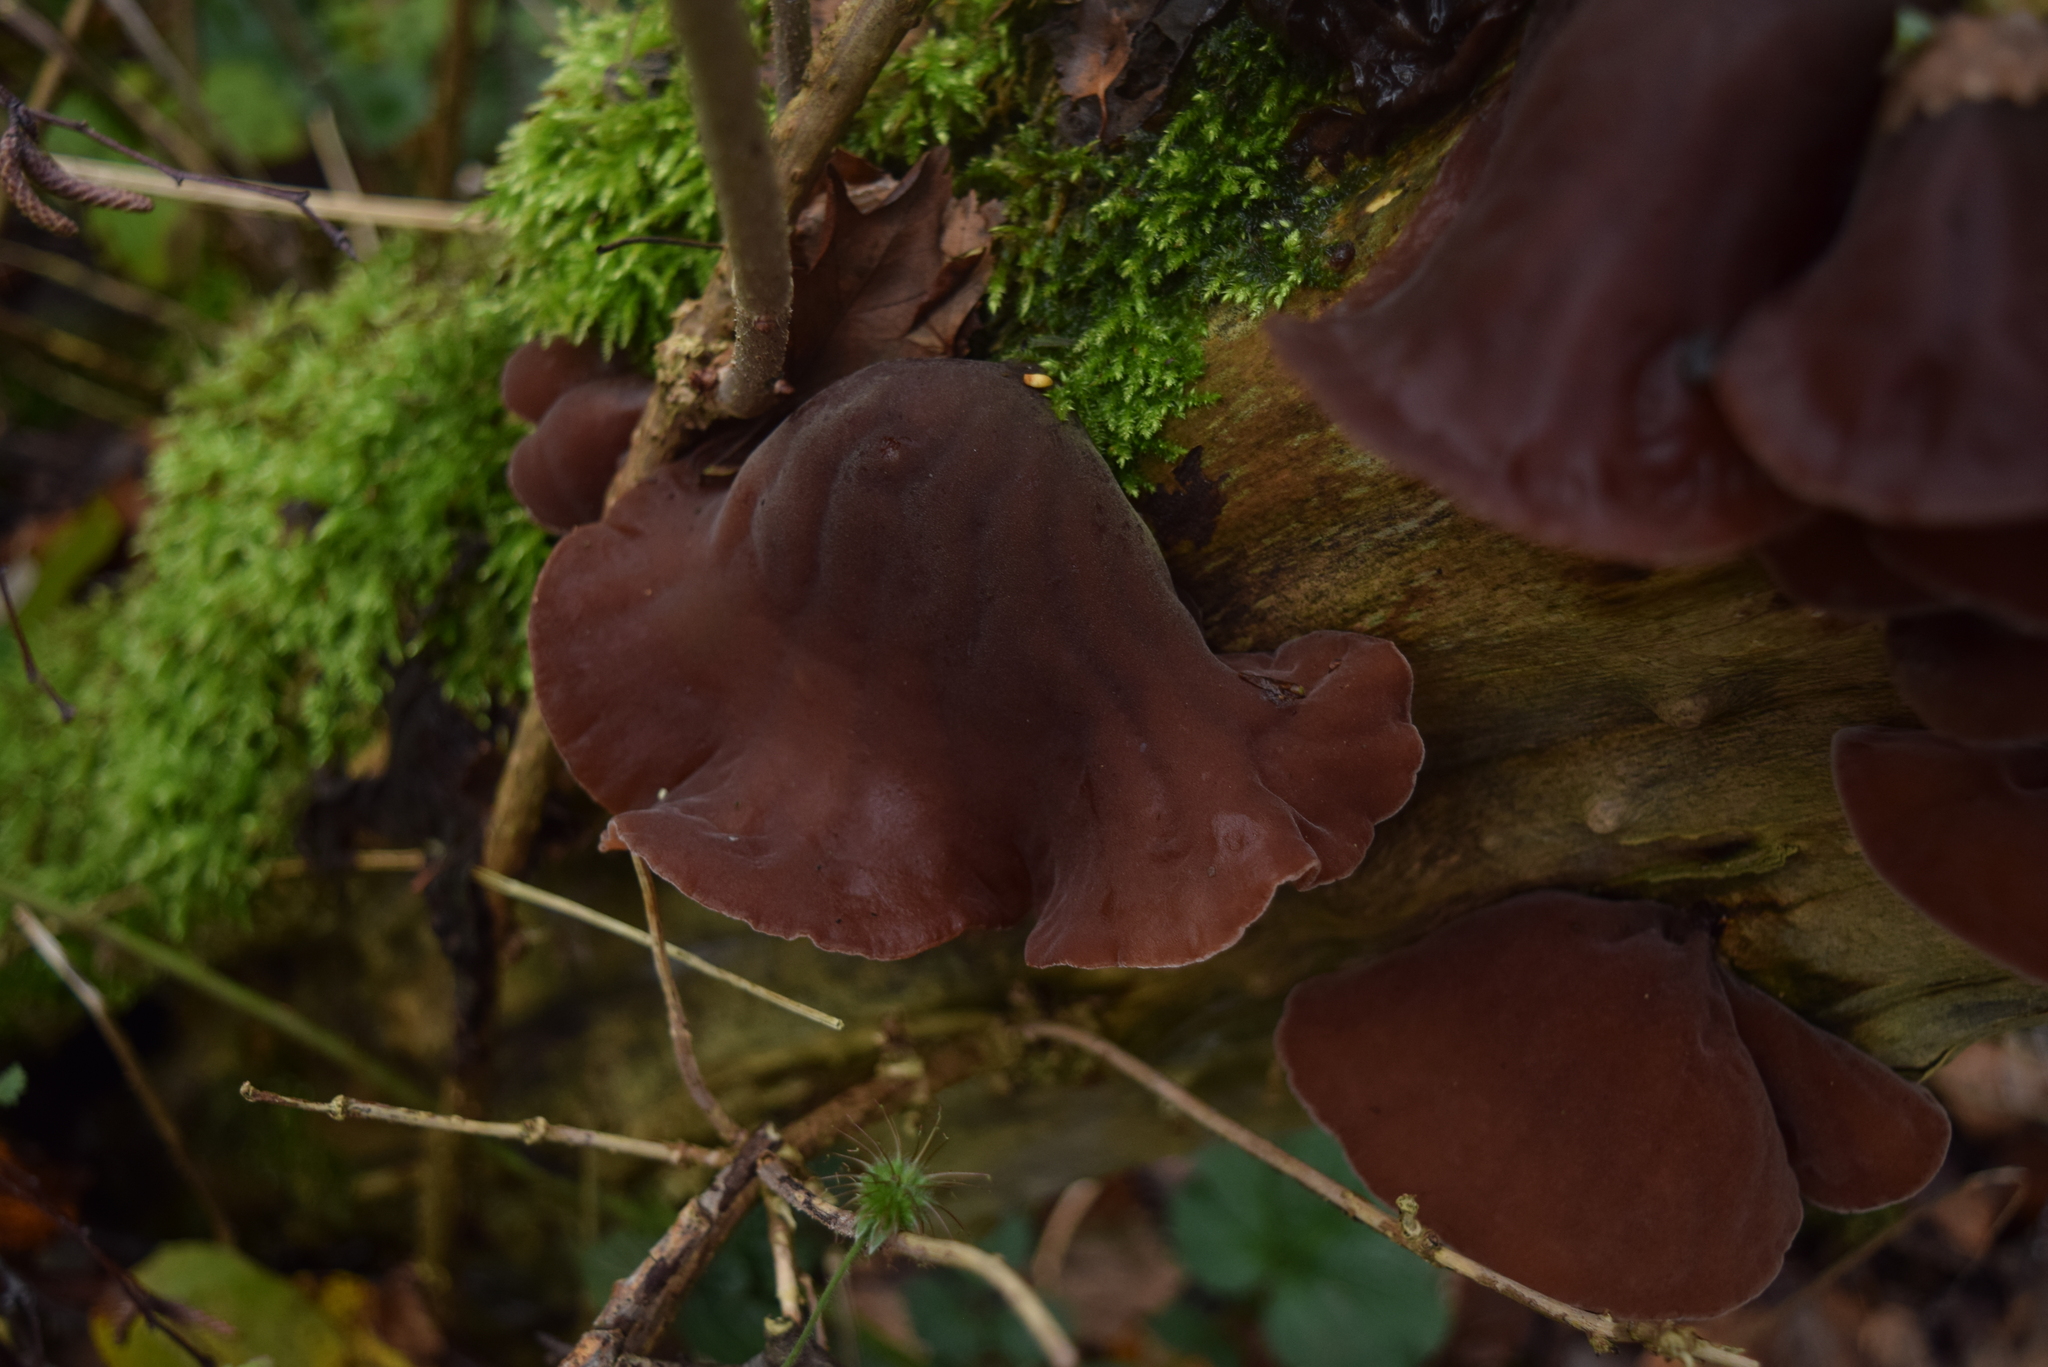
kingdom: Fungi
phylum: Basidiomycota
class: Agaricomycetes
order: Auriculariales
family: Auriculariaceae
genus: Auricularia
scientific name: Auricularia auricula-judae
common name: Jelly ear
